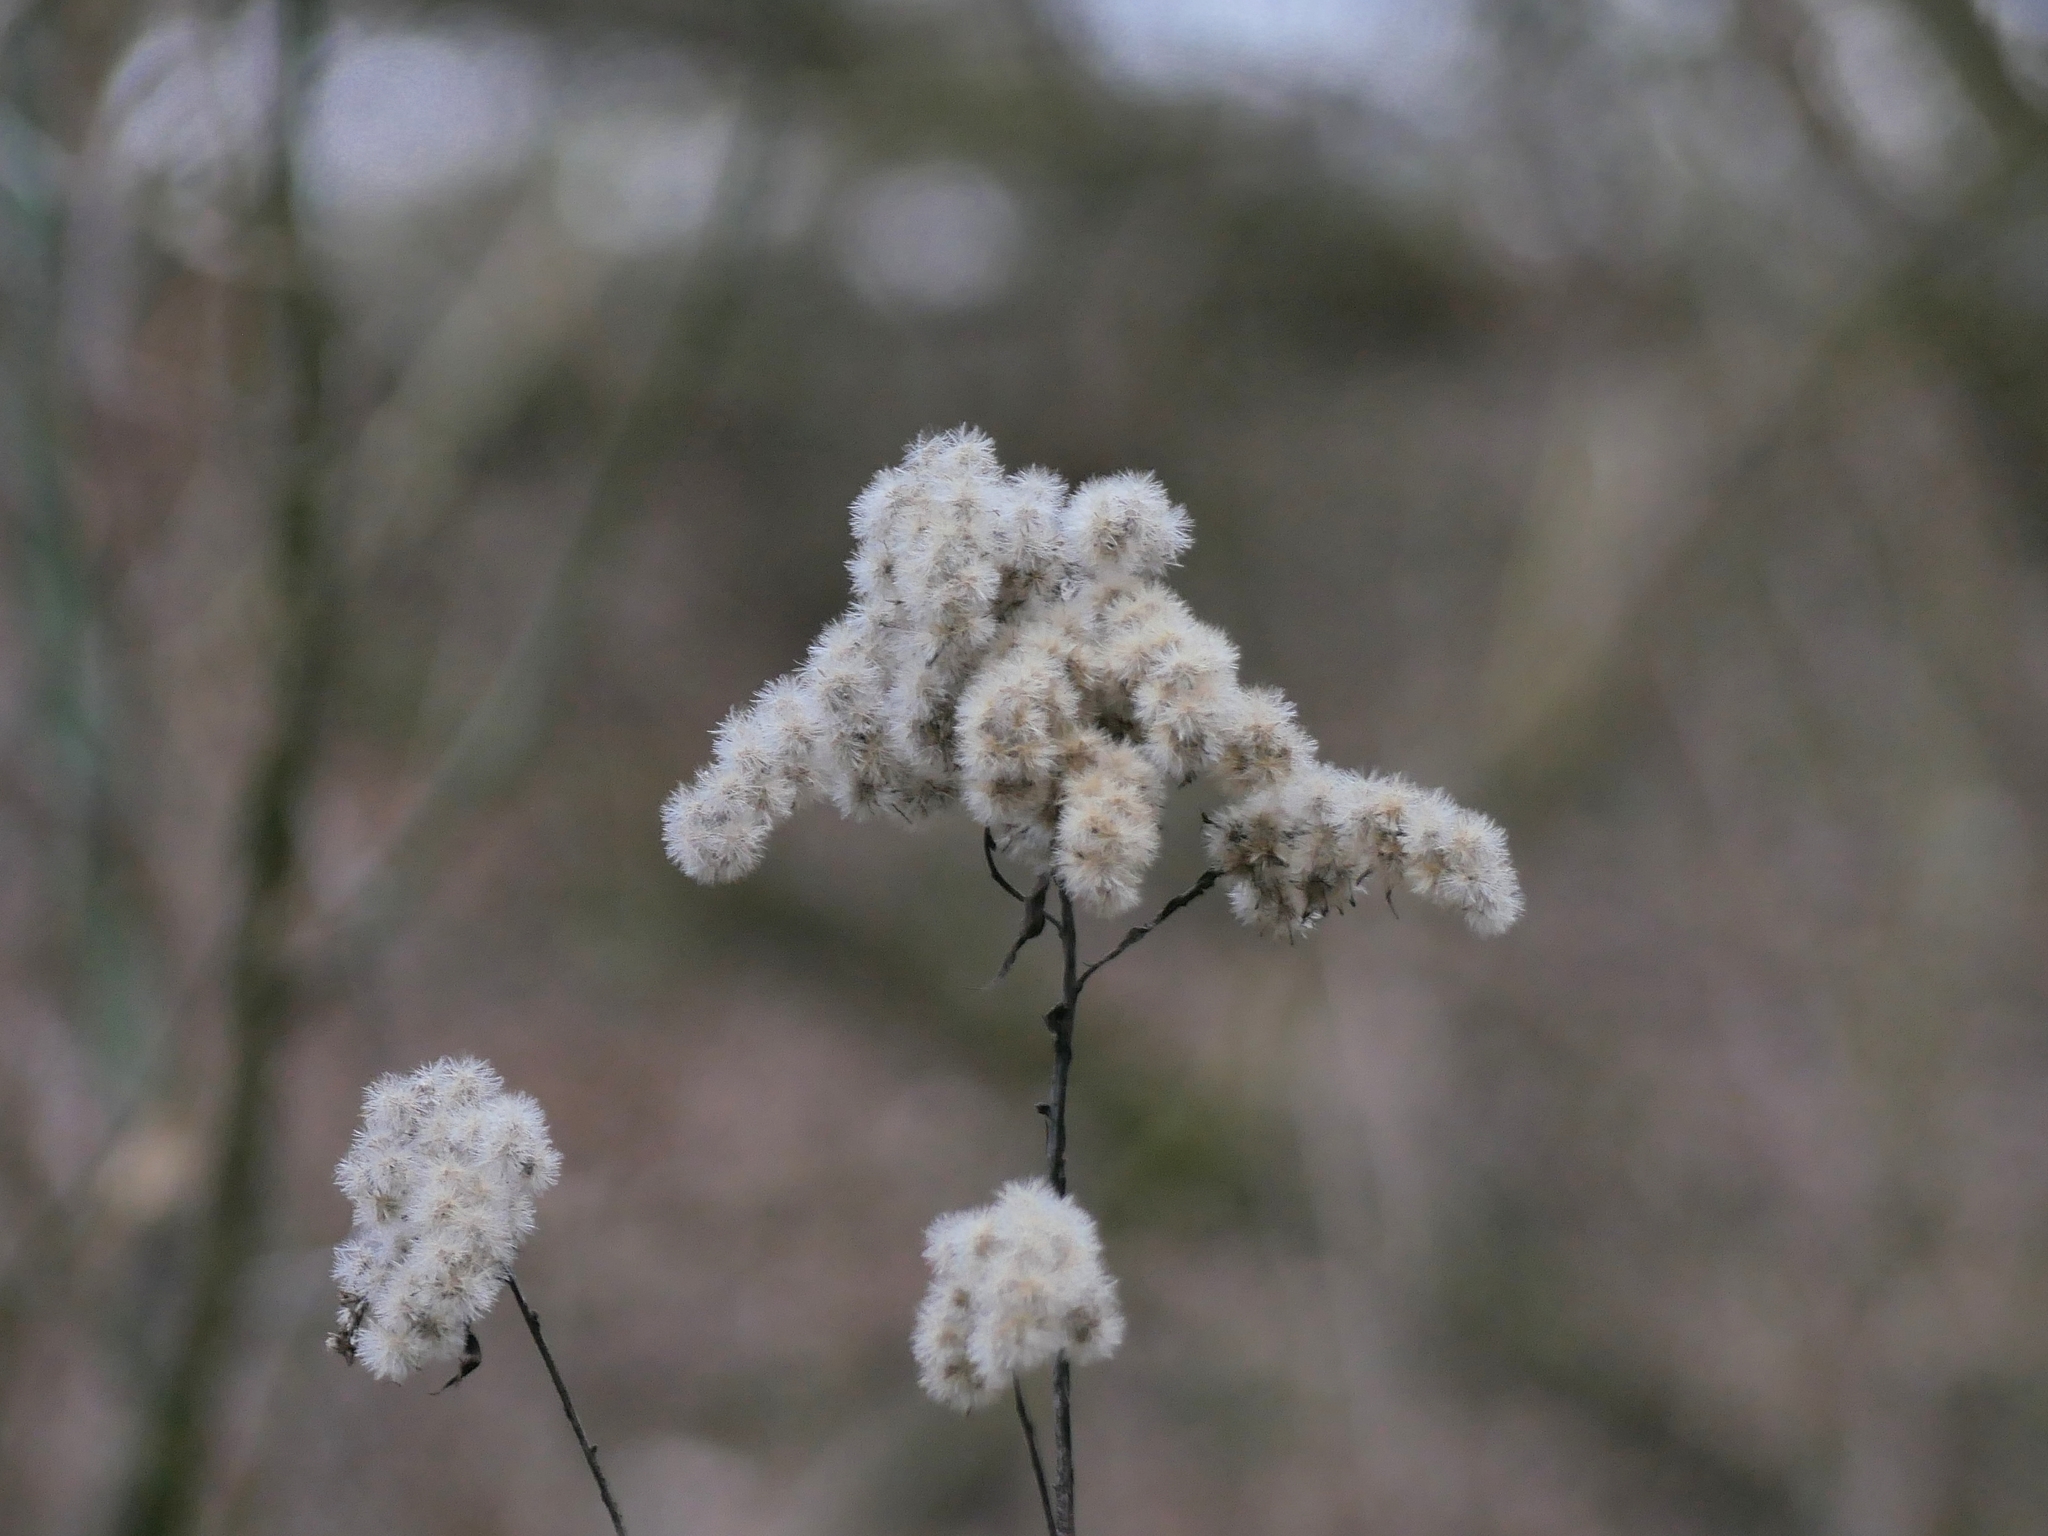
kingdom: Plantae
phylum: Tracheophyta
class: Magnoliopsida
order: Asterales
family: Asteraceae
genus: Solidago
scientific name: Solidago canadensis
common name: Canada goldenrod
